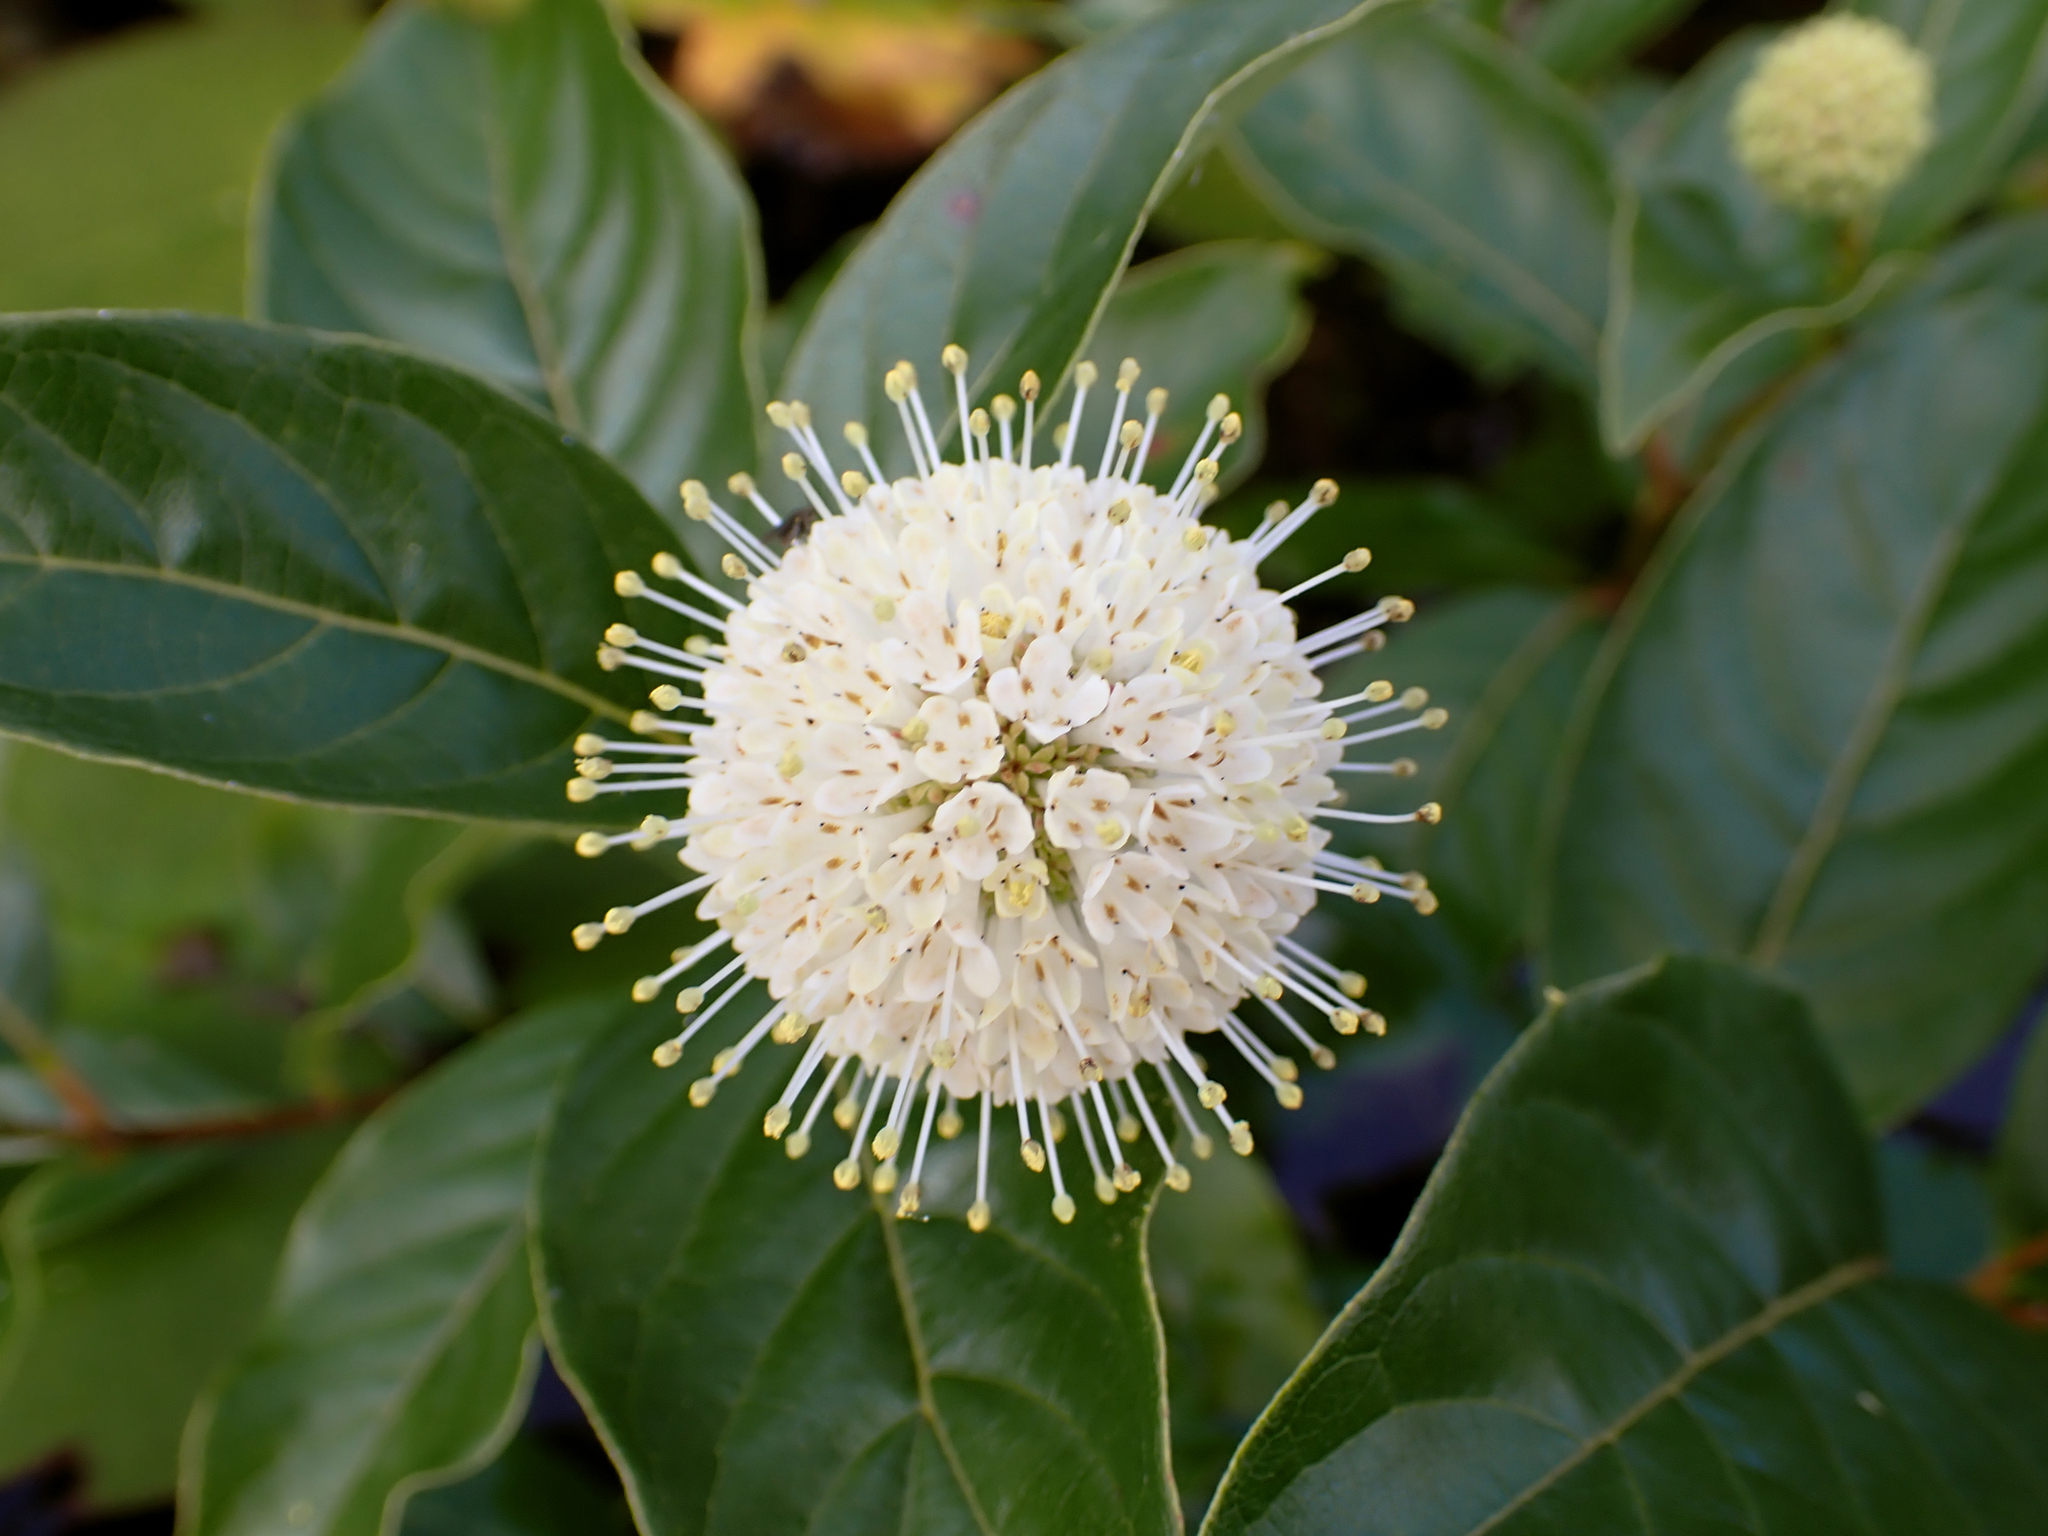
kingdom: Plantae
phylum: Tracheophyta
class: Magnoliopsida
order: Gentianales
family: Rubiaceae
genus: Cephalanthus
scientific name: Cephalanthus occidentalis
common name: Button-willow
